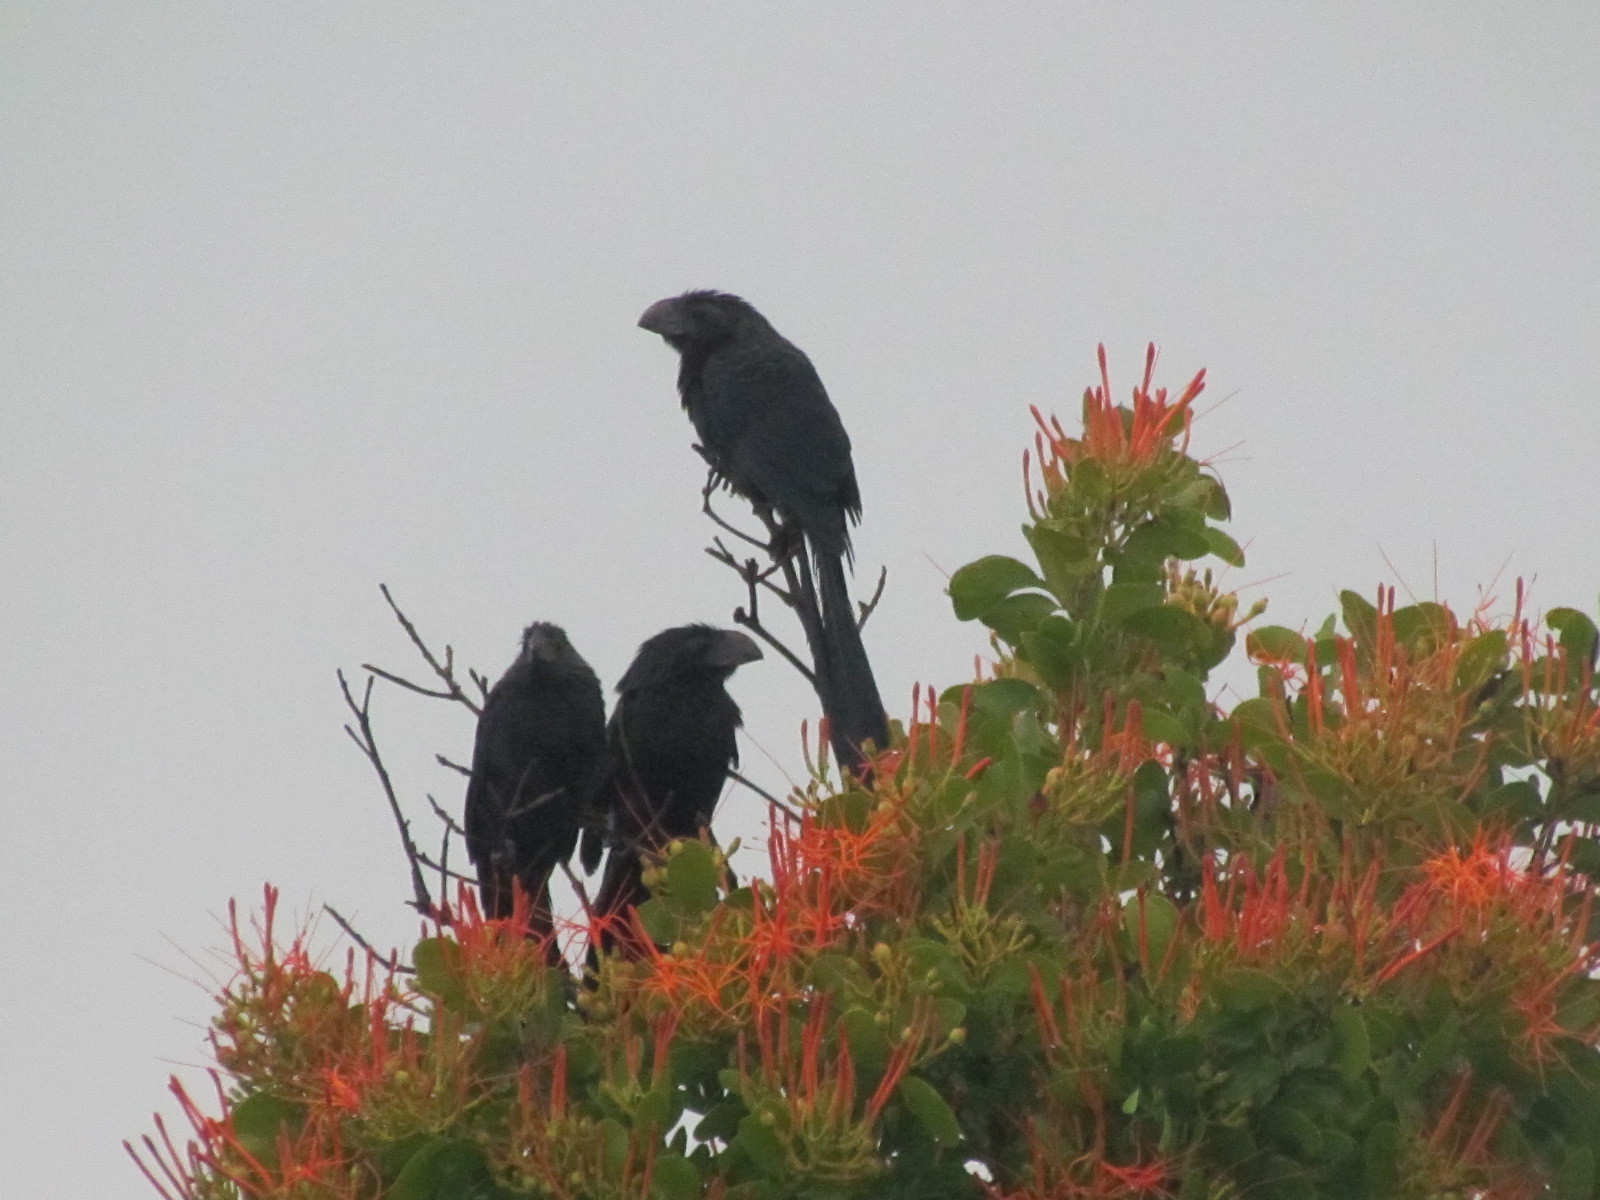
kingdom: Animalia
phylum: Chordata
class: Aves
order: Cuculiformes
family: Cuculidae
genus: Crotophaga
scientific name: Crotophaga sulcirostris
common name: Groove-billed ani
